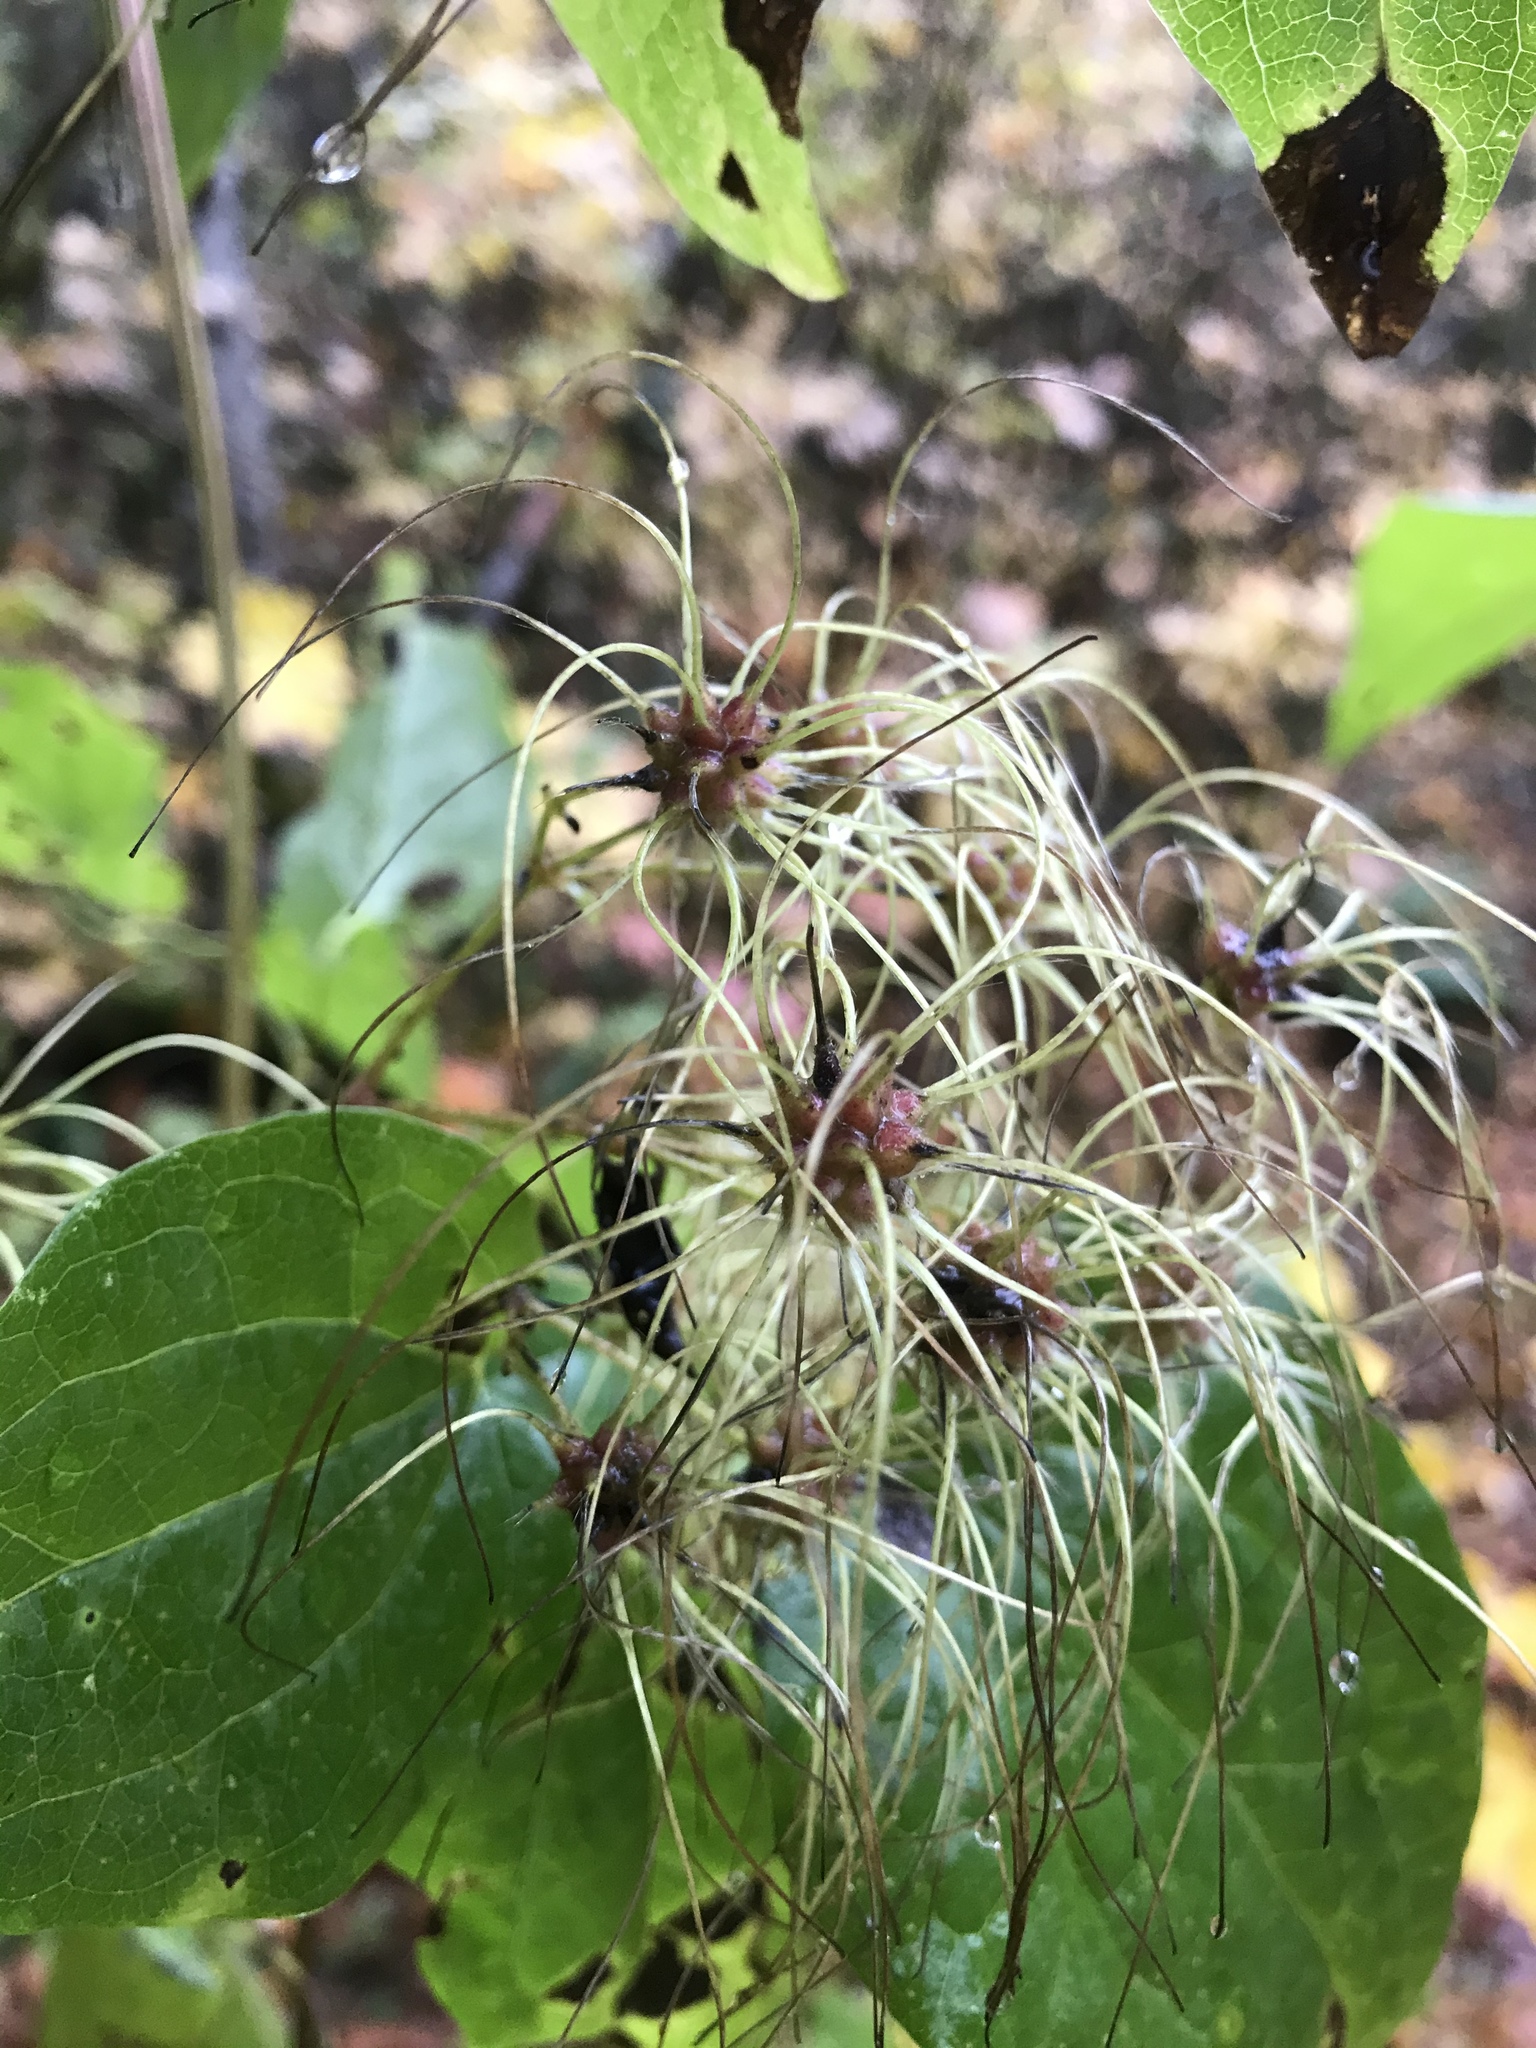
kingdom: Plantae
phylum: Tracheophyta
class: Magnoliopsida
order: Ranunculales
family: Ranunculaceae
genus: Clematis
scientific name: Clematis vitalba
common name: Evergreen clematis
